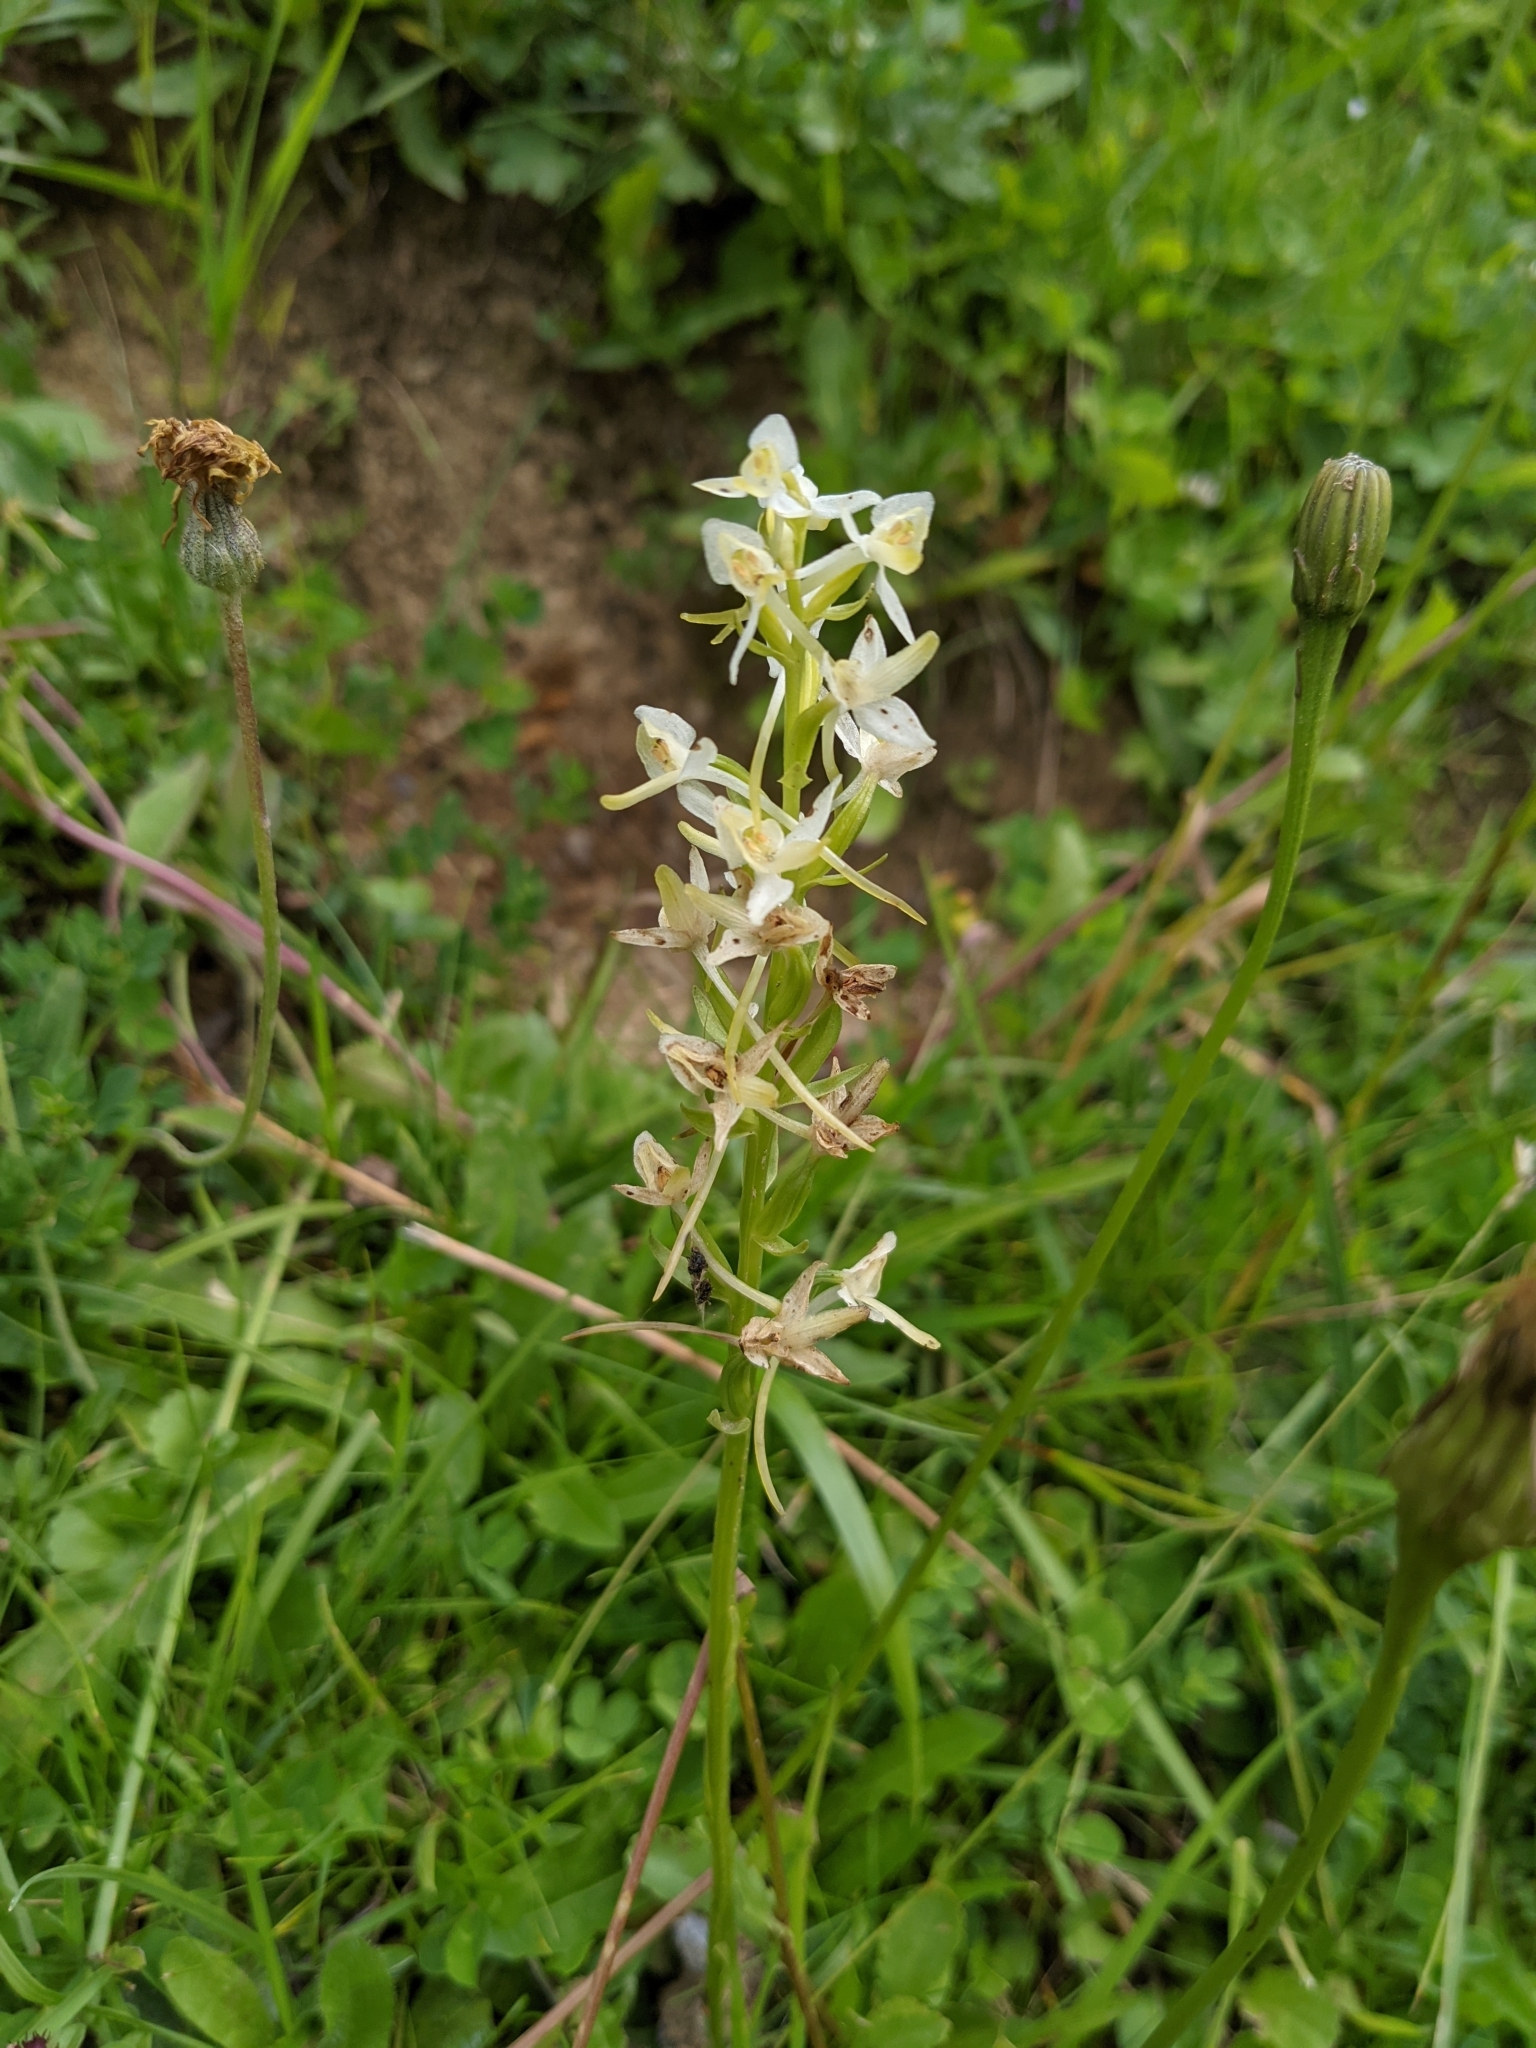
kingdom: Plantae
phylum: Tracheophyta
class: Liliopsida
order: Asparagales
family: Orchidaceae
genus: Platanthera
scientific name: Platanthera bifolia
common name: Lesser butterfly-orchid
